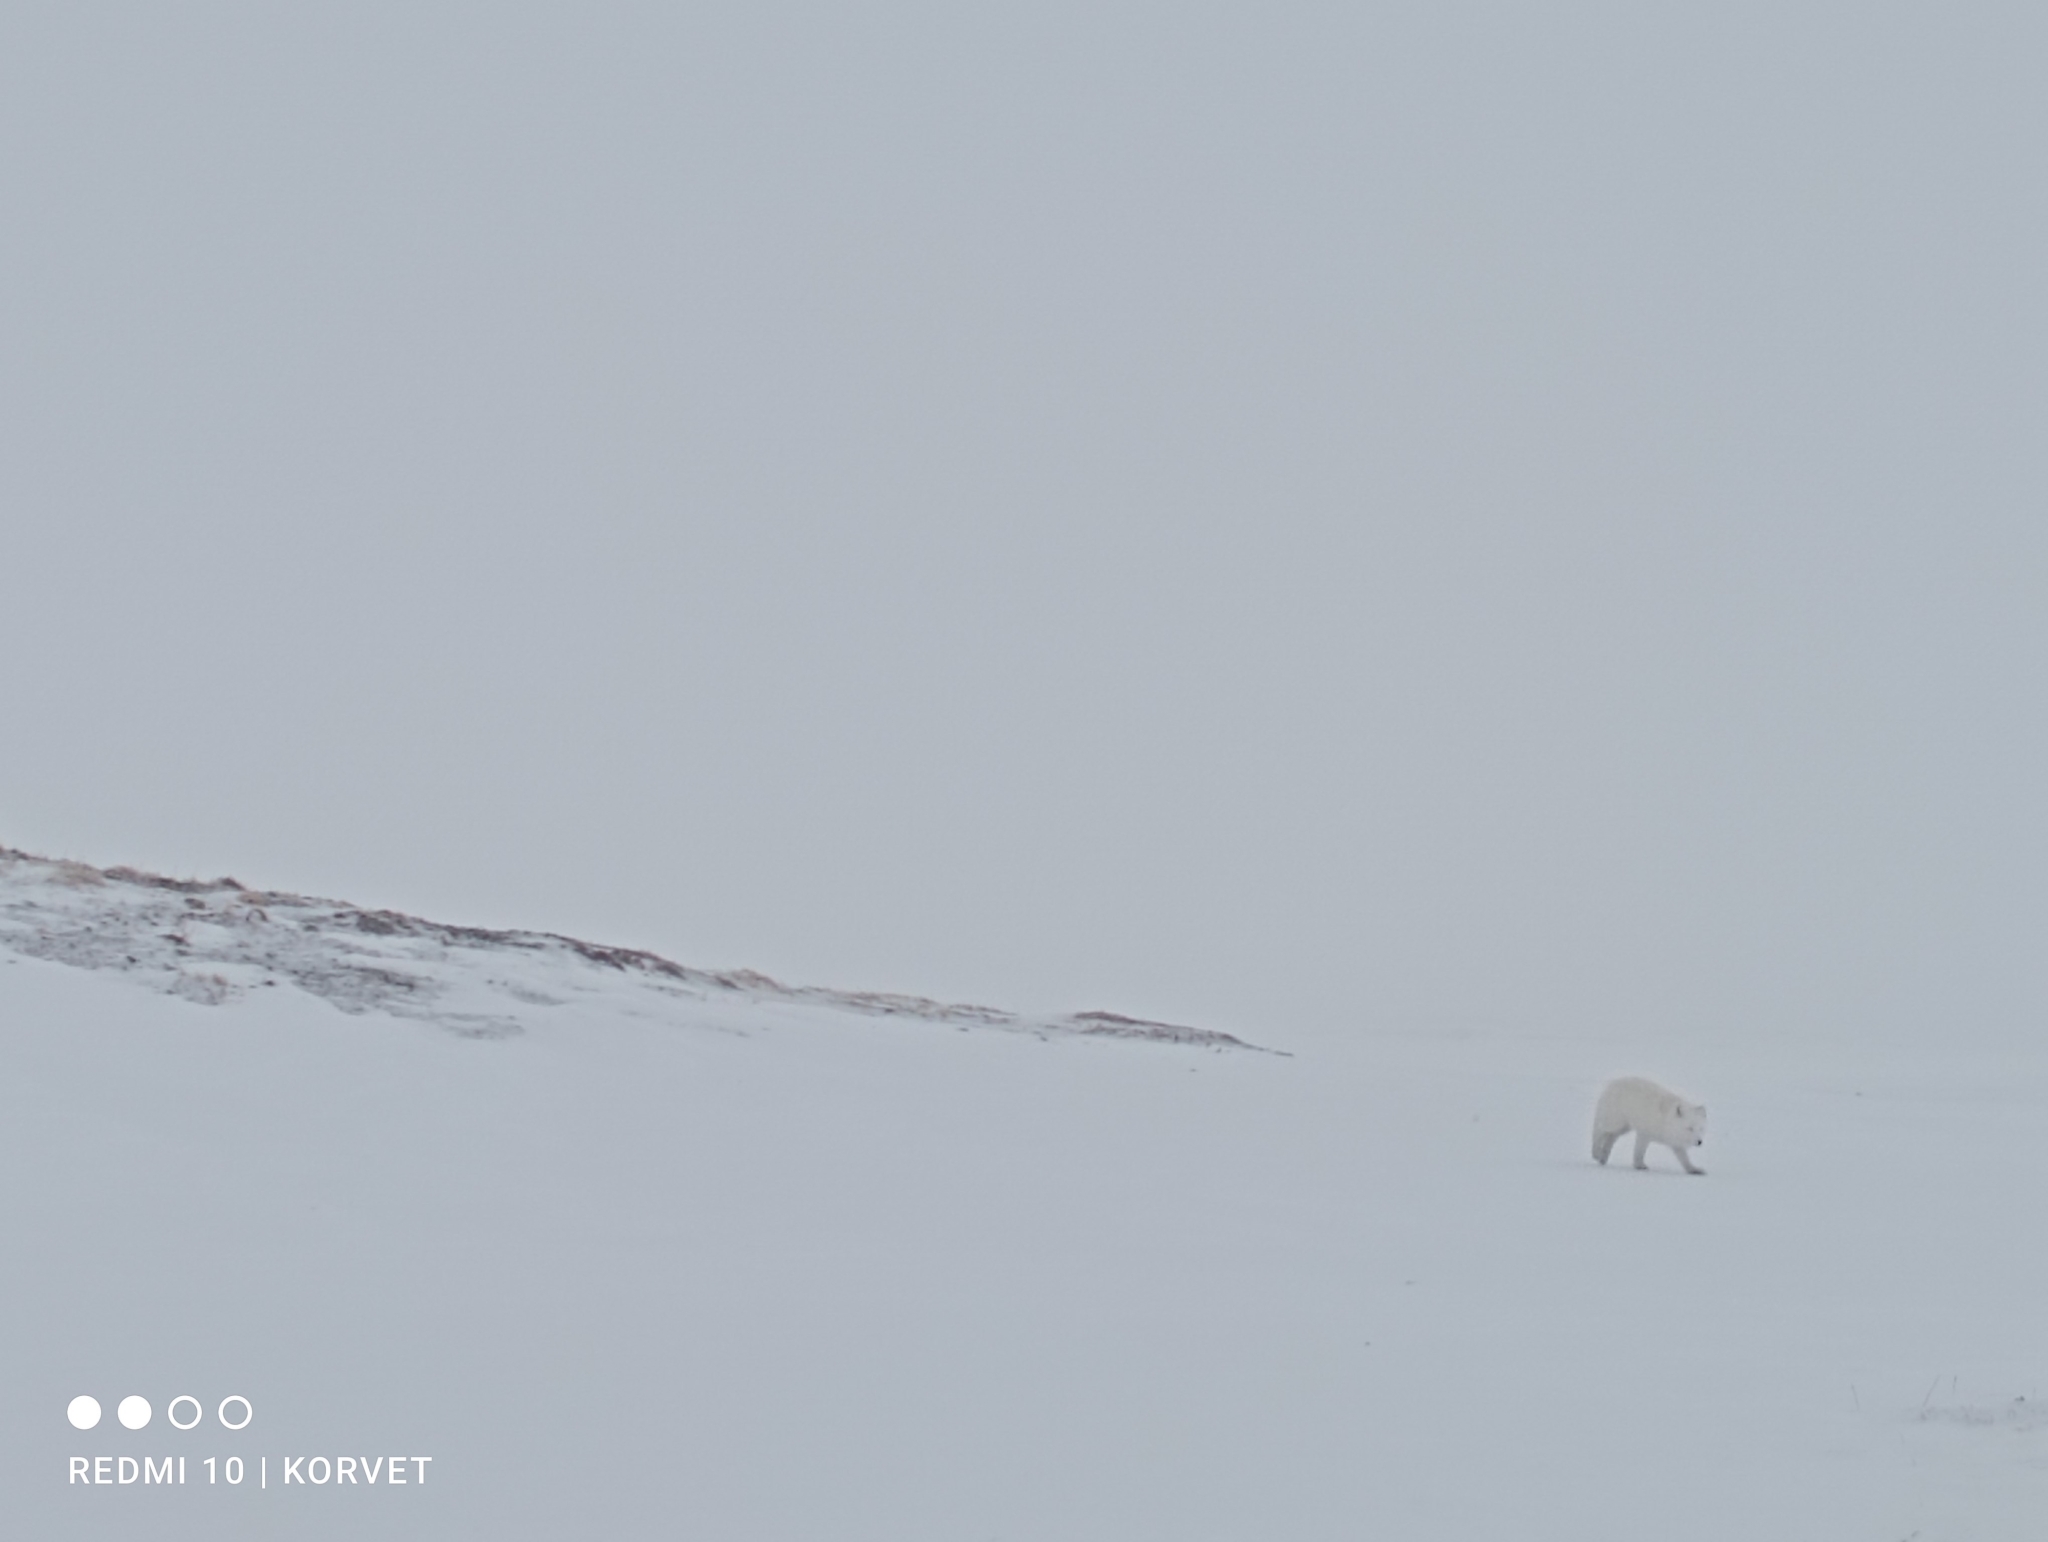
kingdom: Animalia
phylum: Chordata
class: Mammalia
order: Carnivora
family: Canidae
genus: Vulpes
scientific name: Vulpes lagopus
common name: Arctic fox
